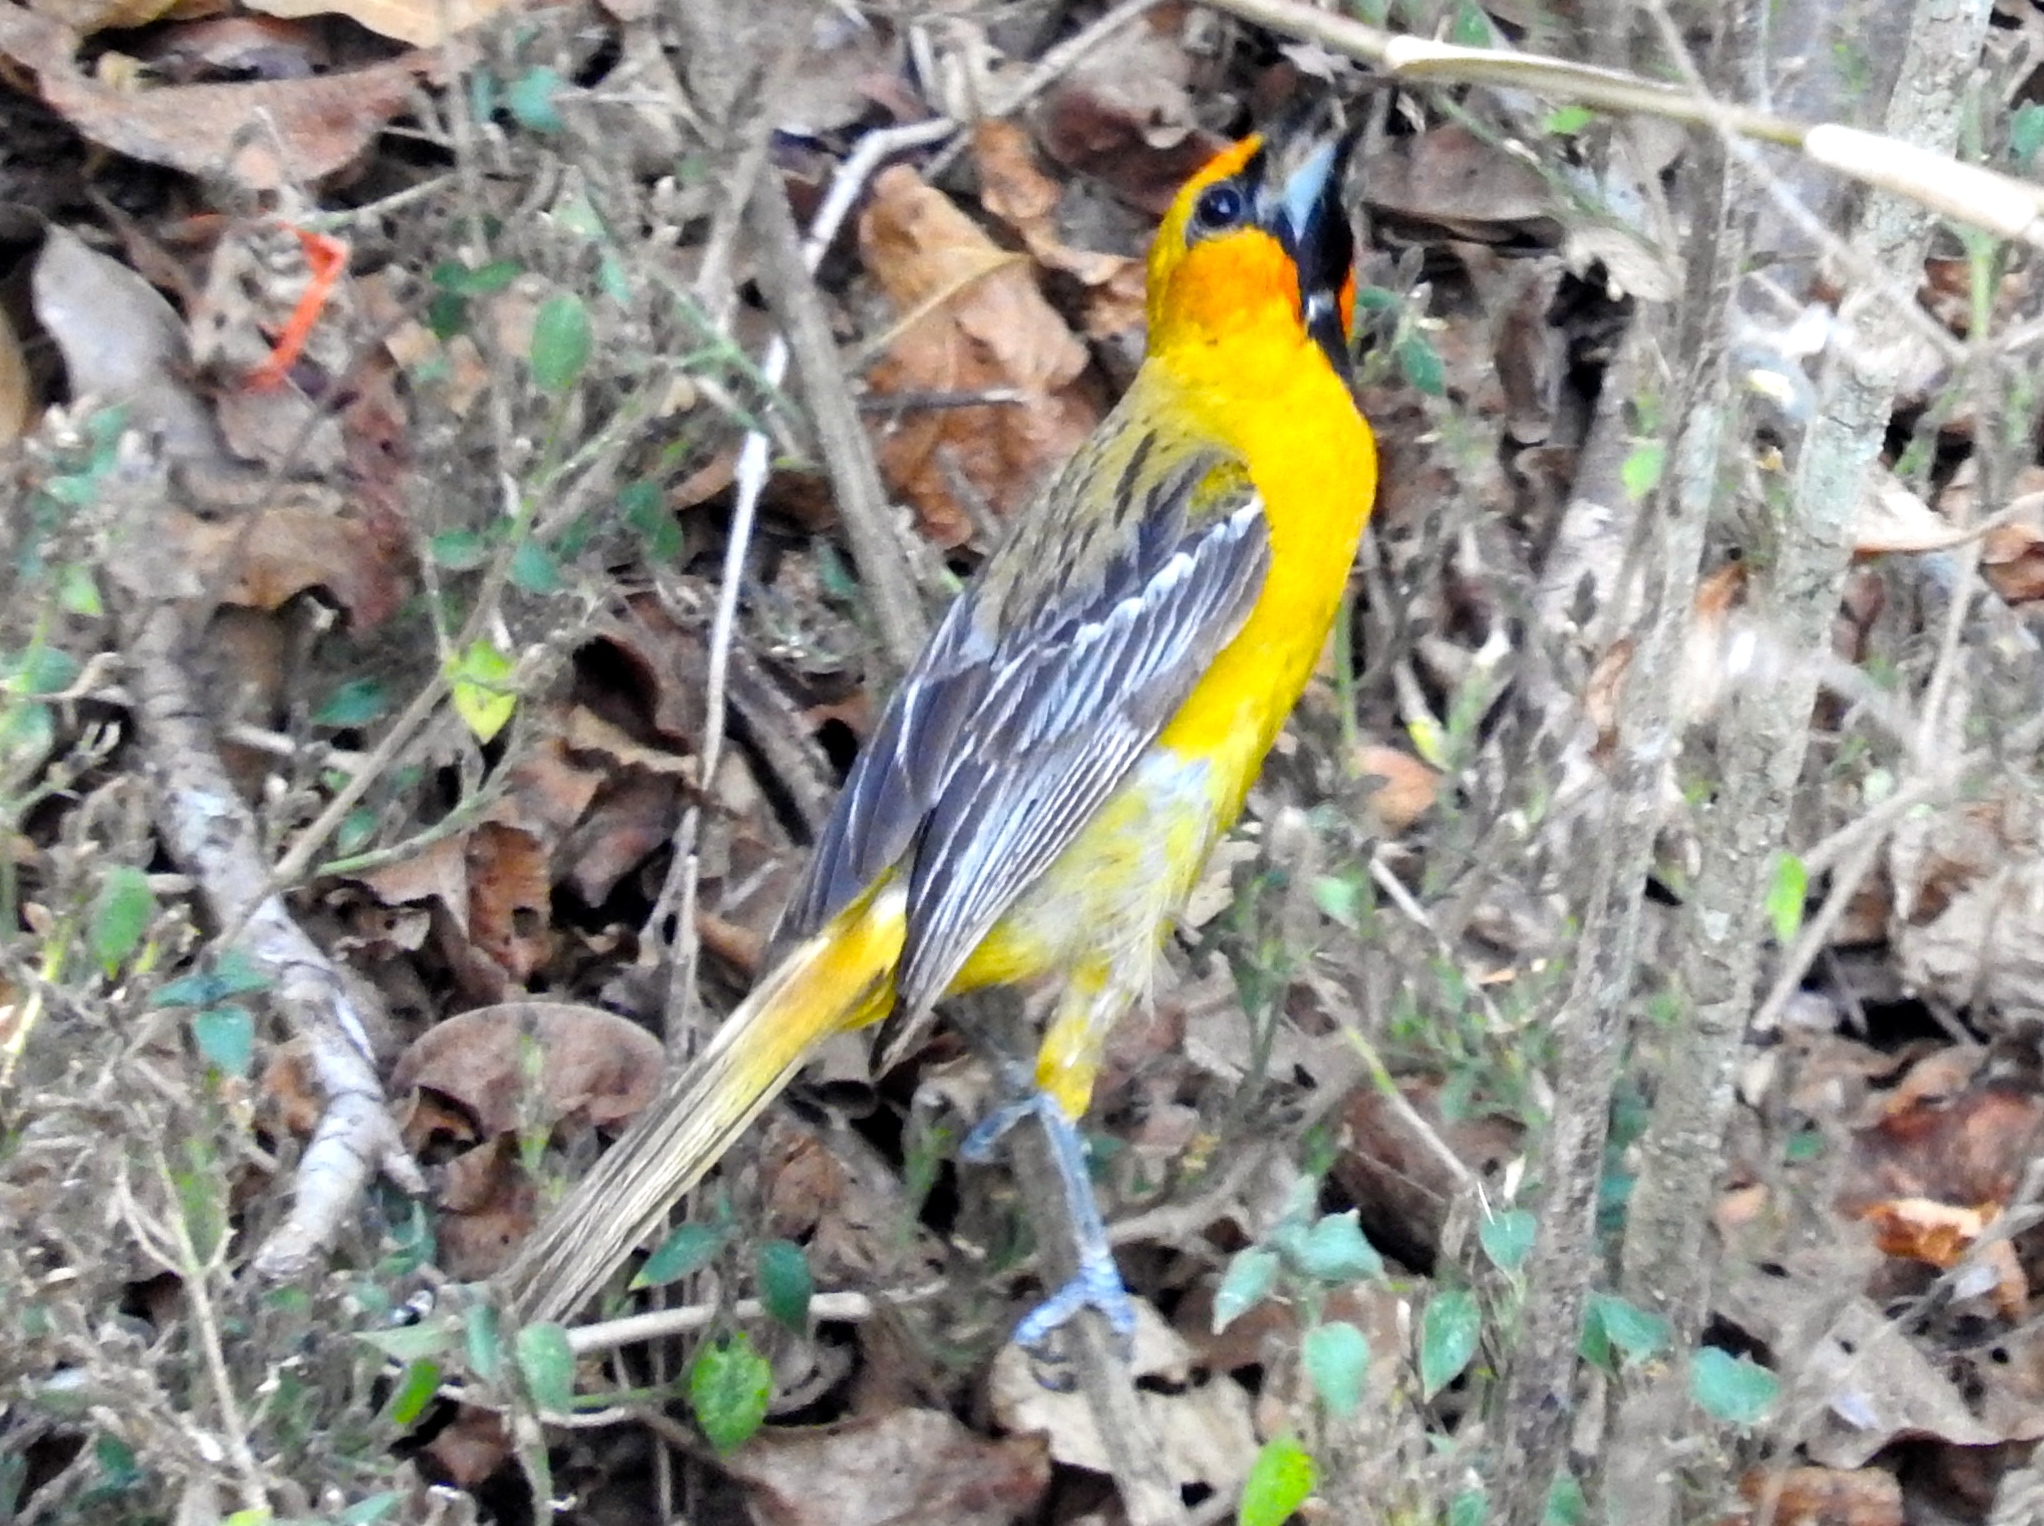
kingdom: Animalia
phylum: Chordata
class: Aves
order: Passeriformes
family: Icteridae
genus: Icterus
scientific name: Icterus pustulatus
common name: Streak-backed oriole
